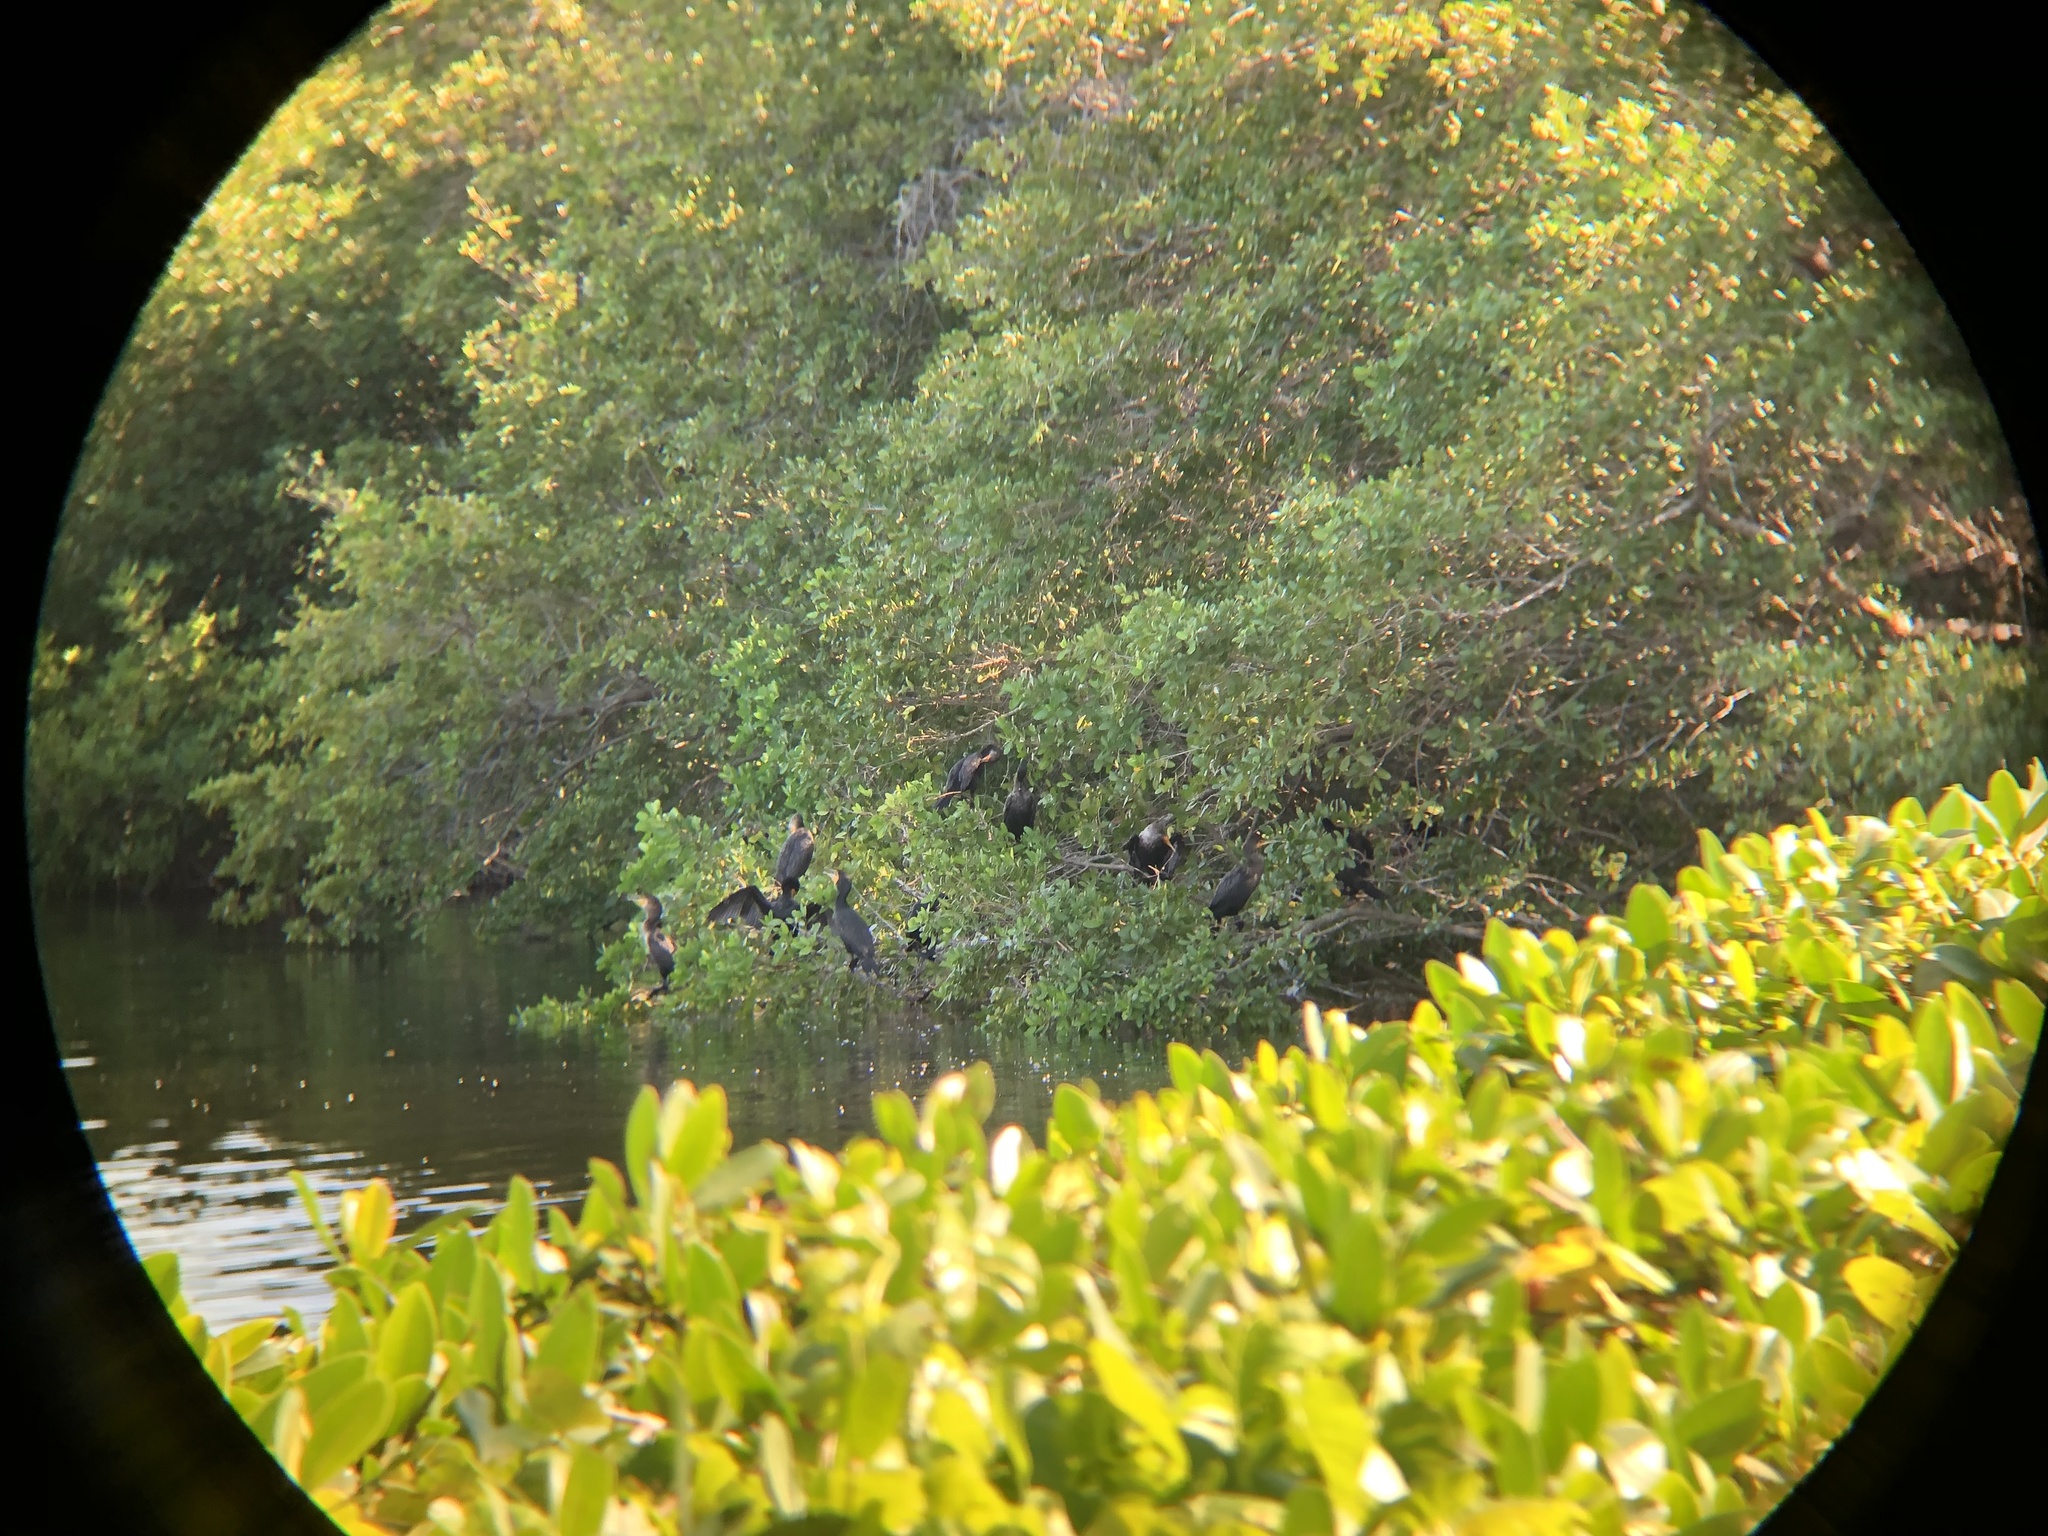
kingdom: Animalia
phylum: Chordata
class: Aves
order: Suliformes
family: Phalacrocoracidae
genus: Phalacrocorax
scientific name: Phalacrocorax auritus
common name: Double-crested cormorant
